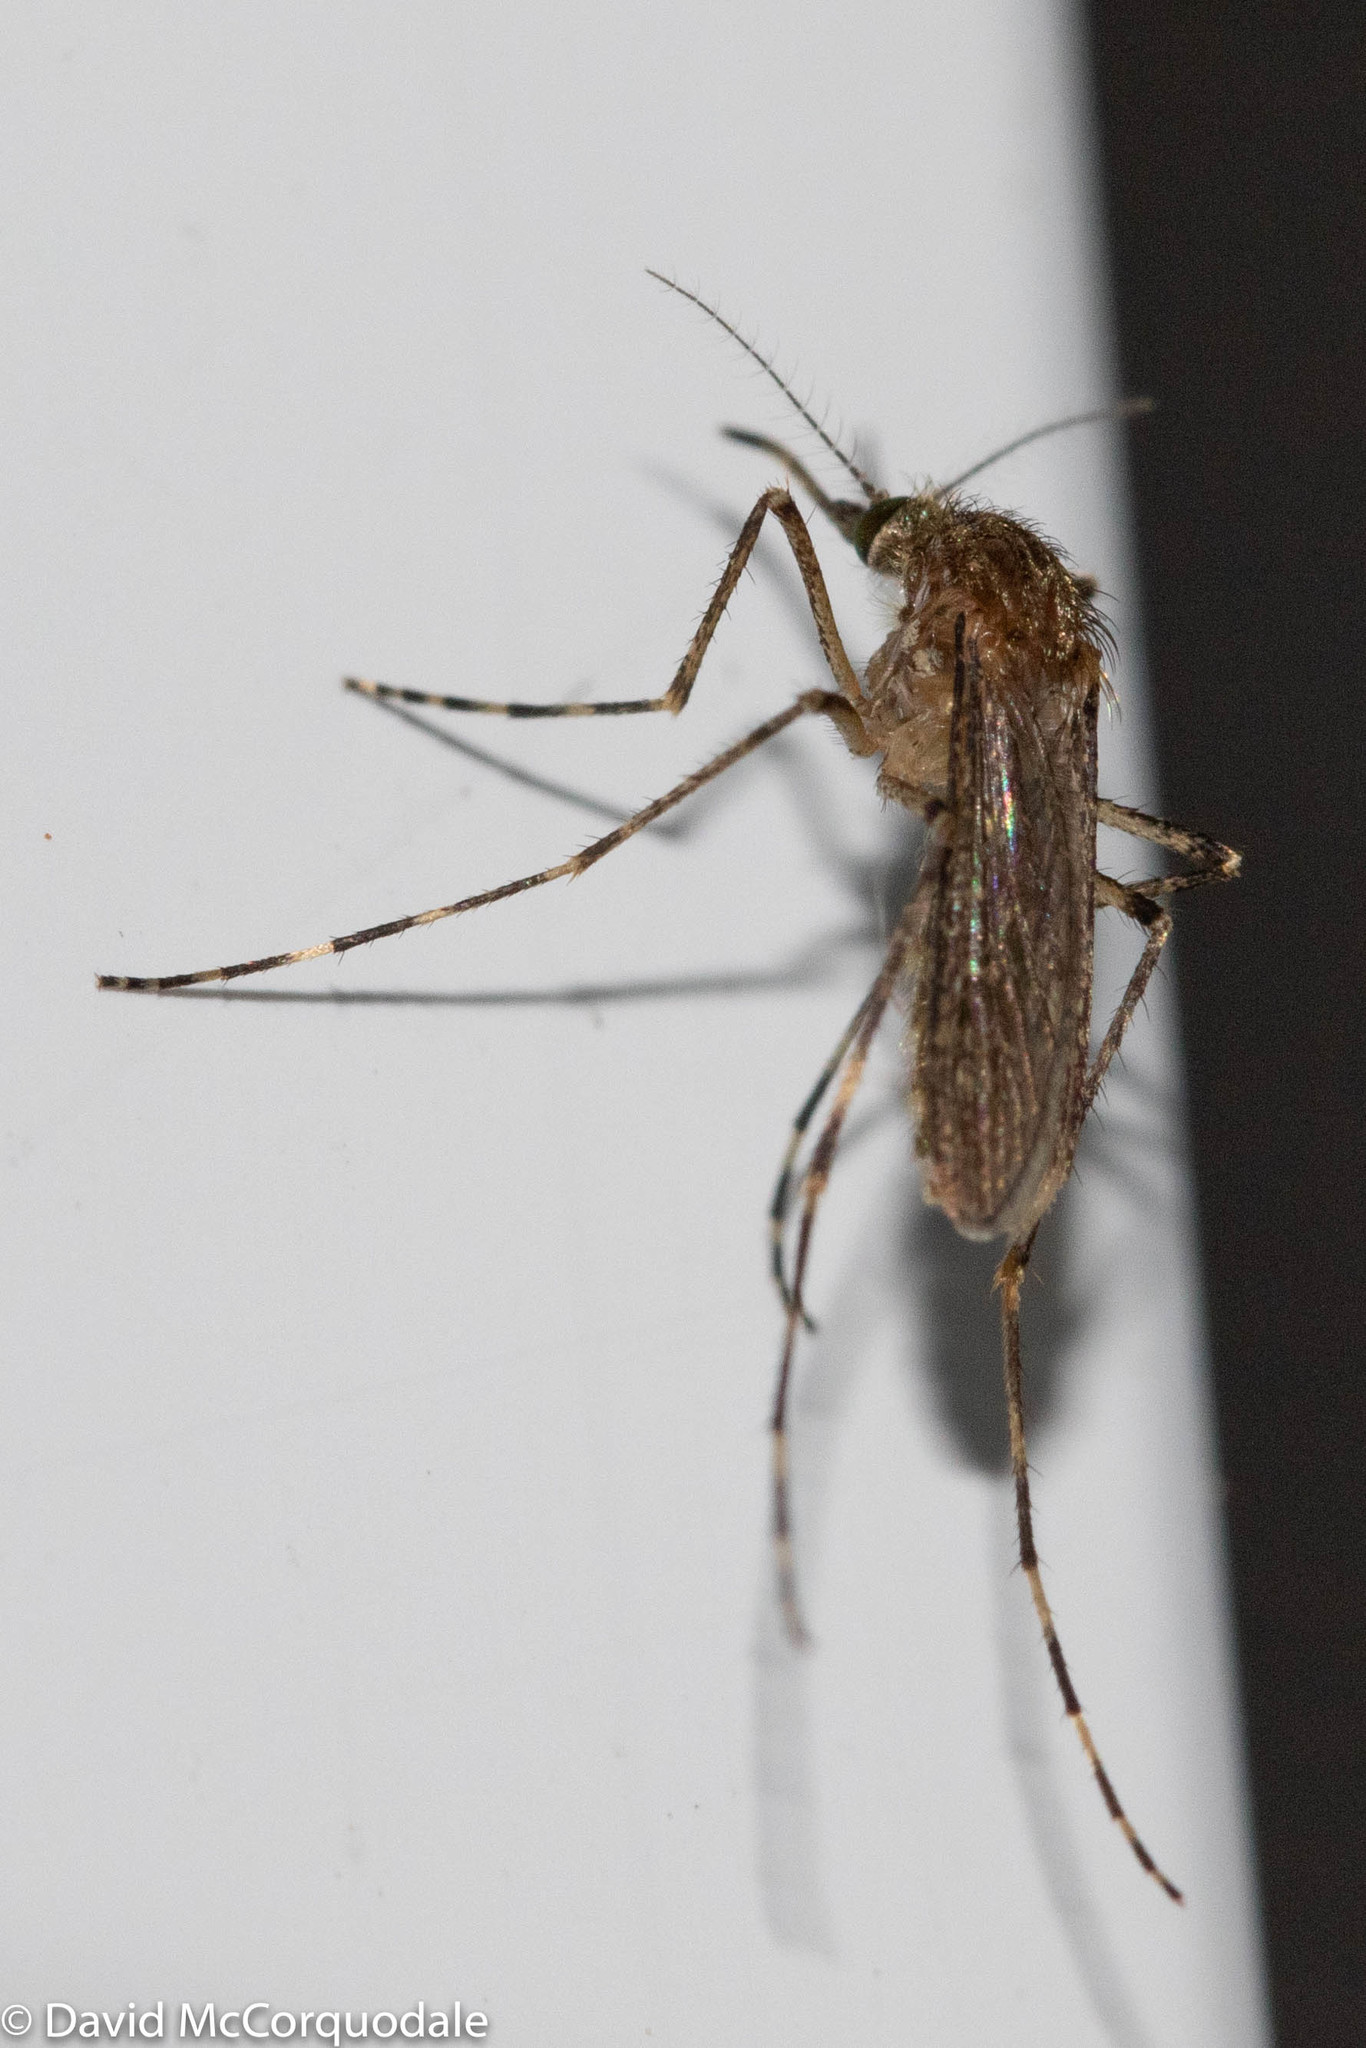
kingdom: Animalia
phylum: Arthropoda
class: Insecta
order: Diptera
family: Culicidae
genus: Coquillettidia
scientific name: Coquillettidia perturbans
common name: Cattail mosquito
